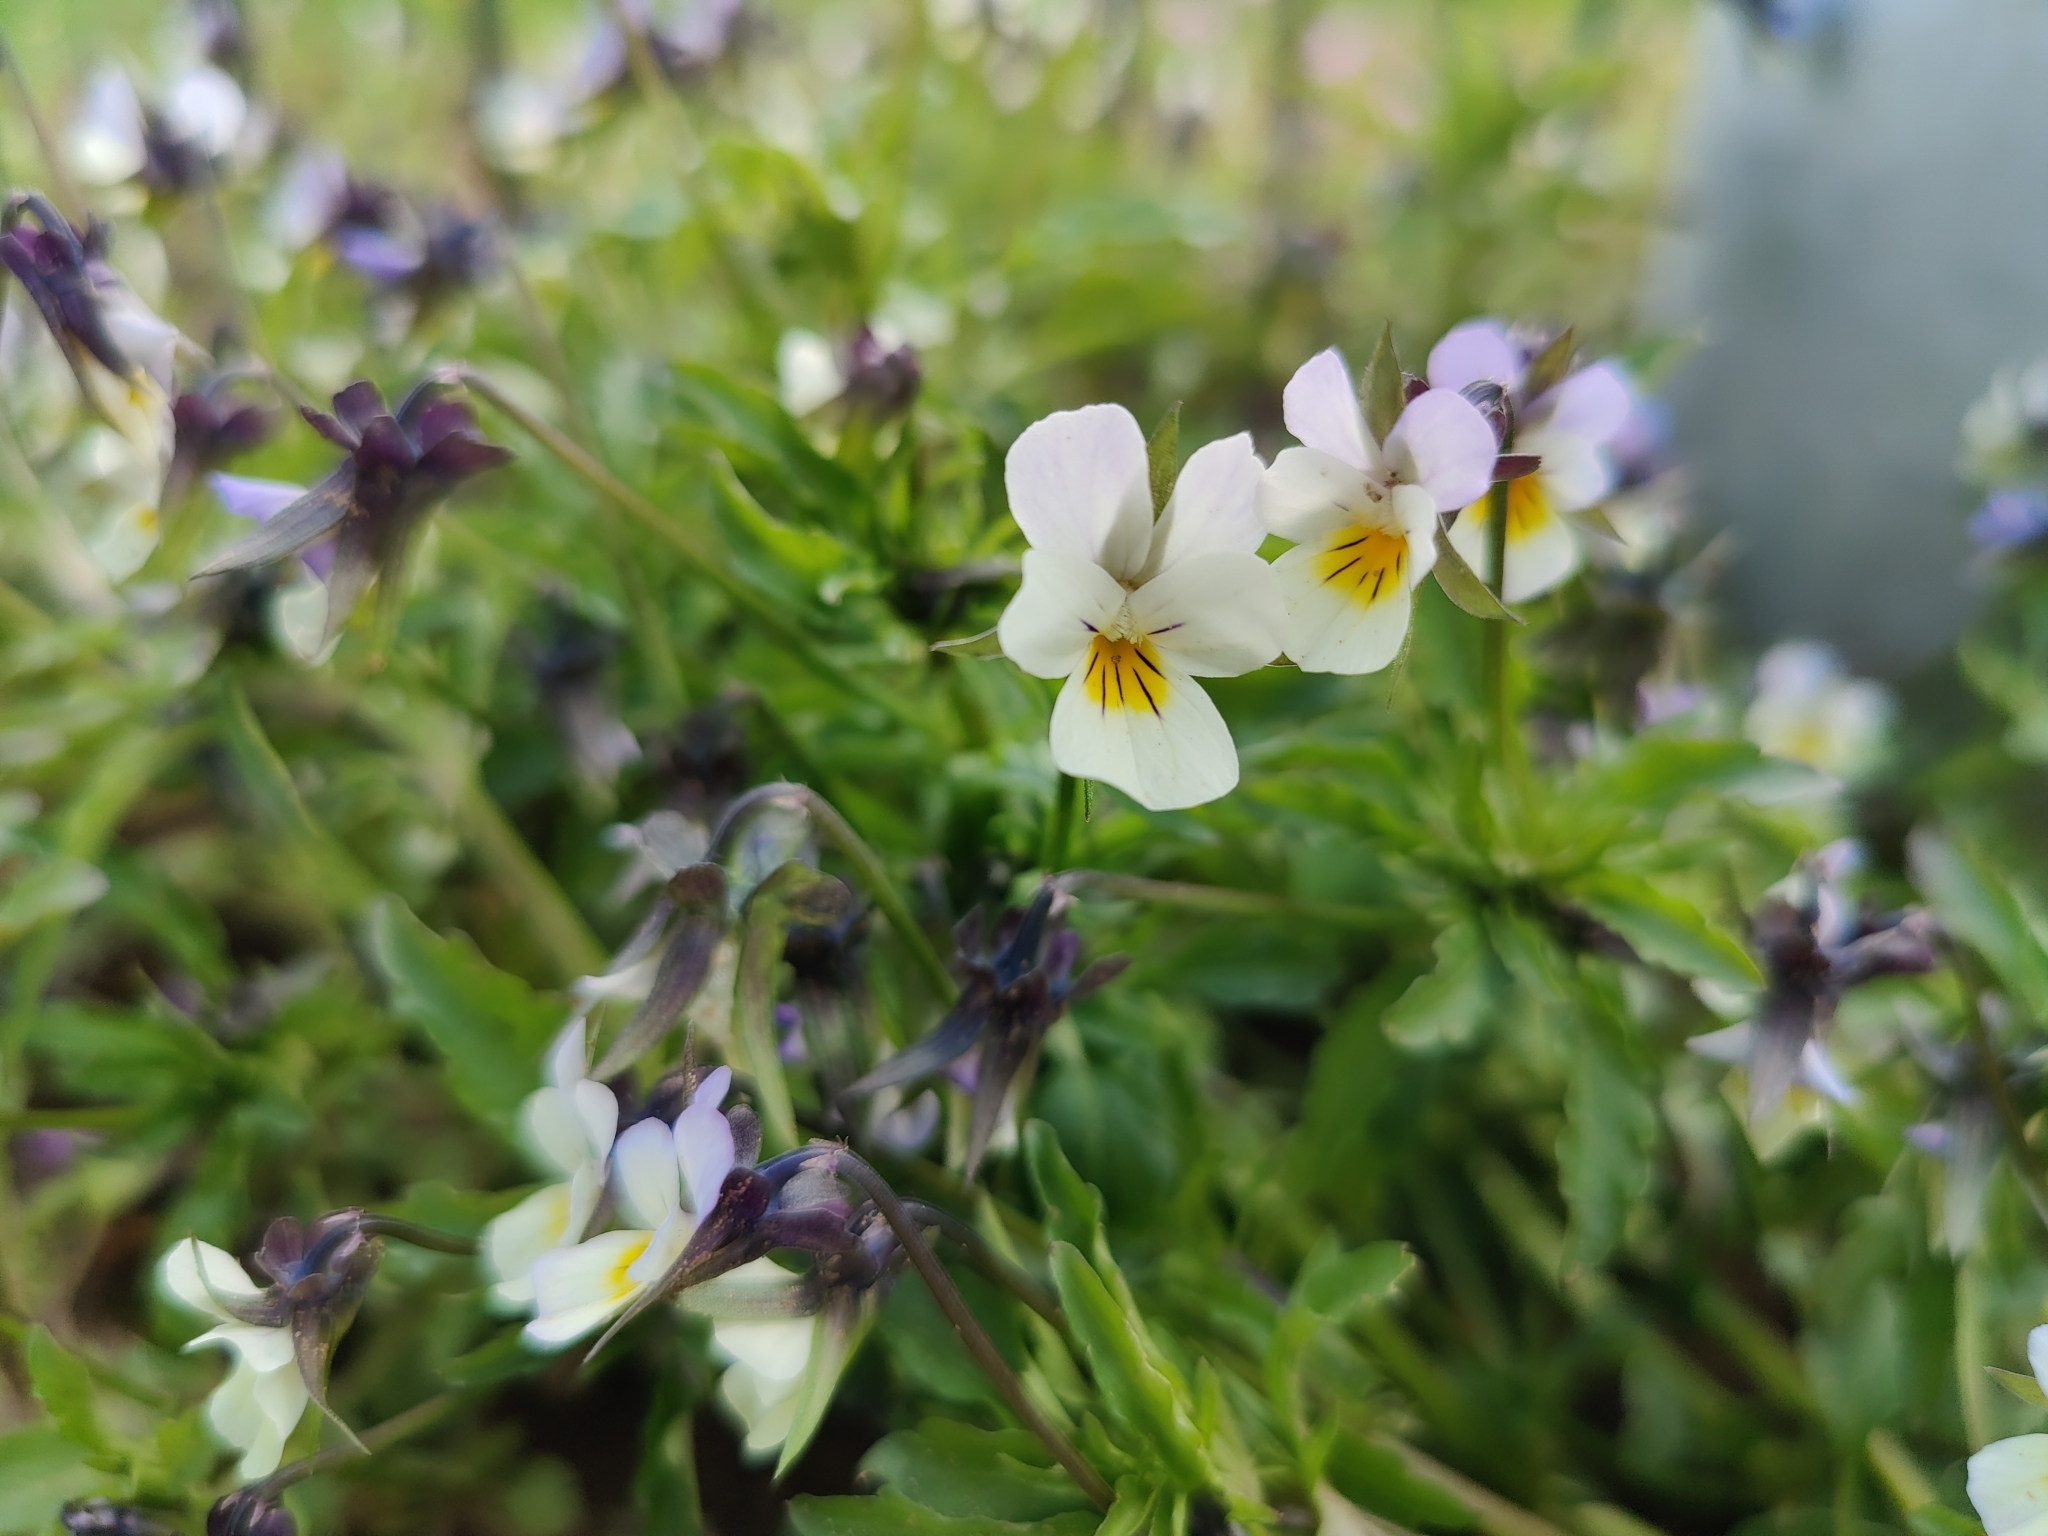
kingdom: Plantae
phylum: Tracheophyta
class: Magnoliopsida
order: Malpighiales
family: Violaceae
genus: Viola
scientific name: Viola arvensis
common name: Field pansy
